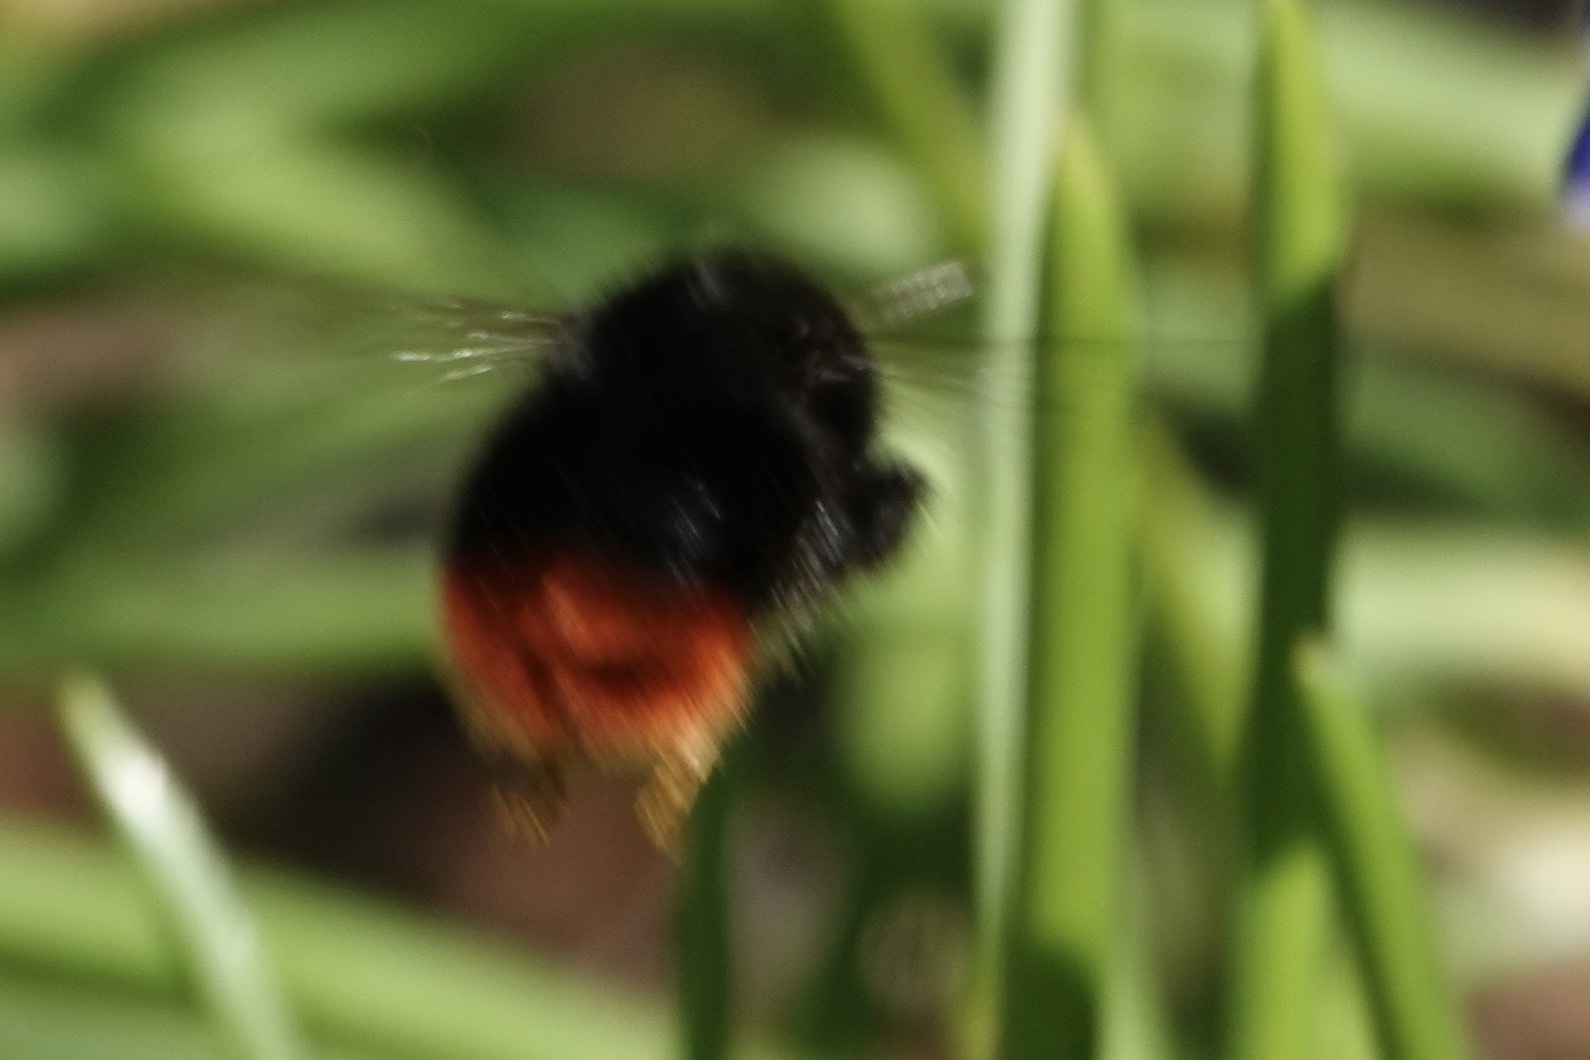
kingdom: Animalia
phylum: Arthropoda
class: Insecta
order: Hymenoptera
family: Apidae
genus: Bombus
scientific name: Bombus lapidarius
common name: Large red-tailed humble-bee
